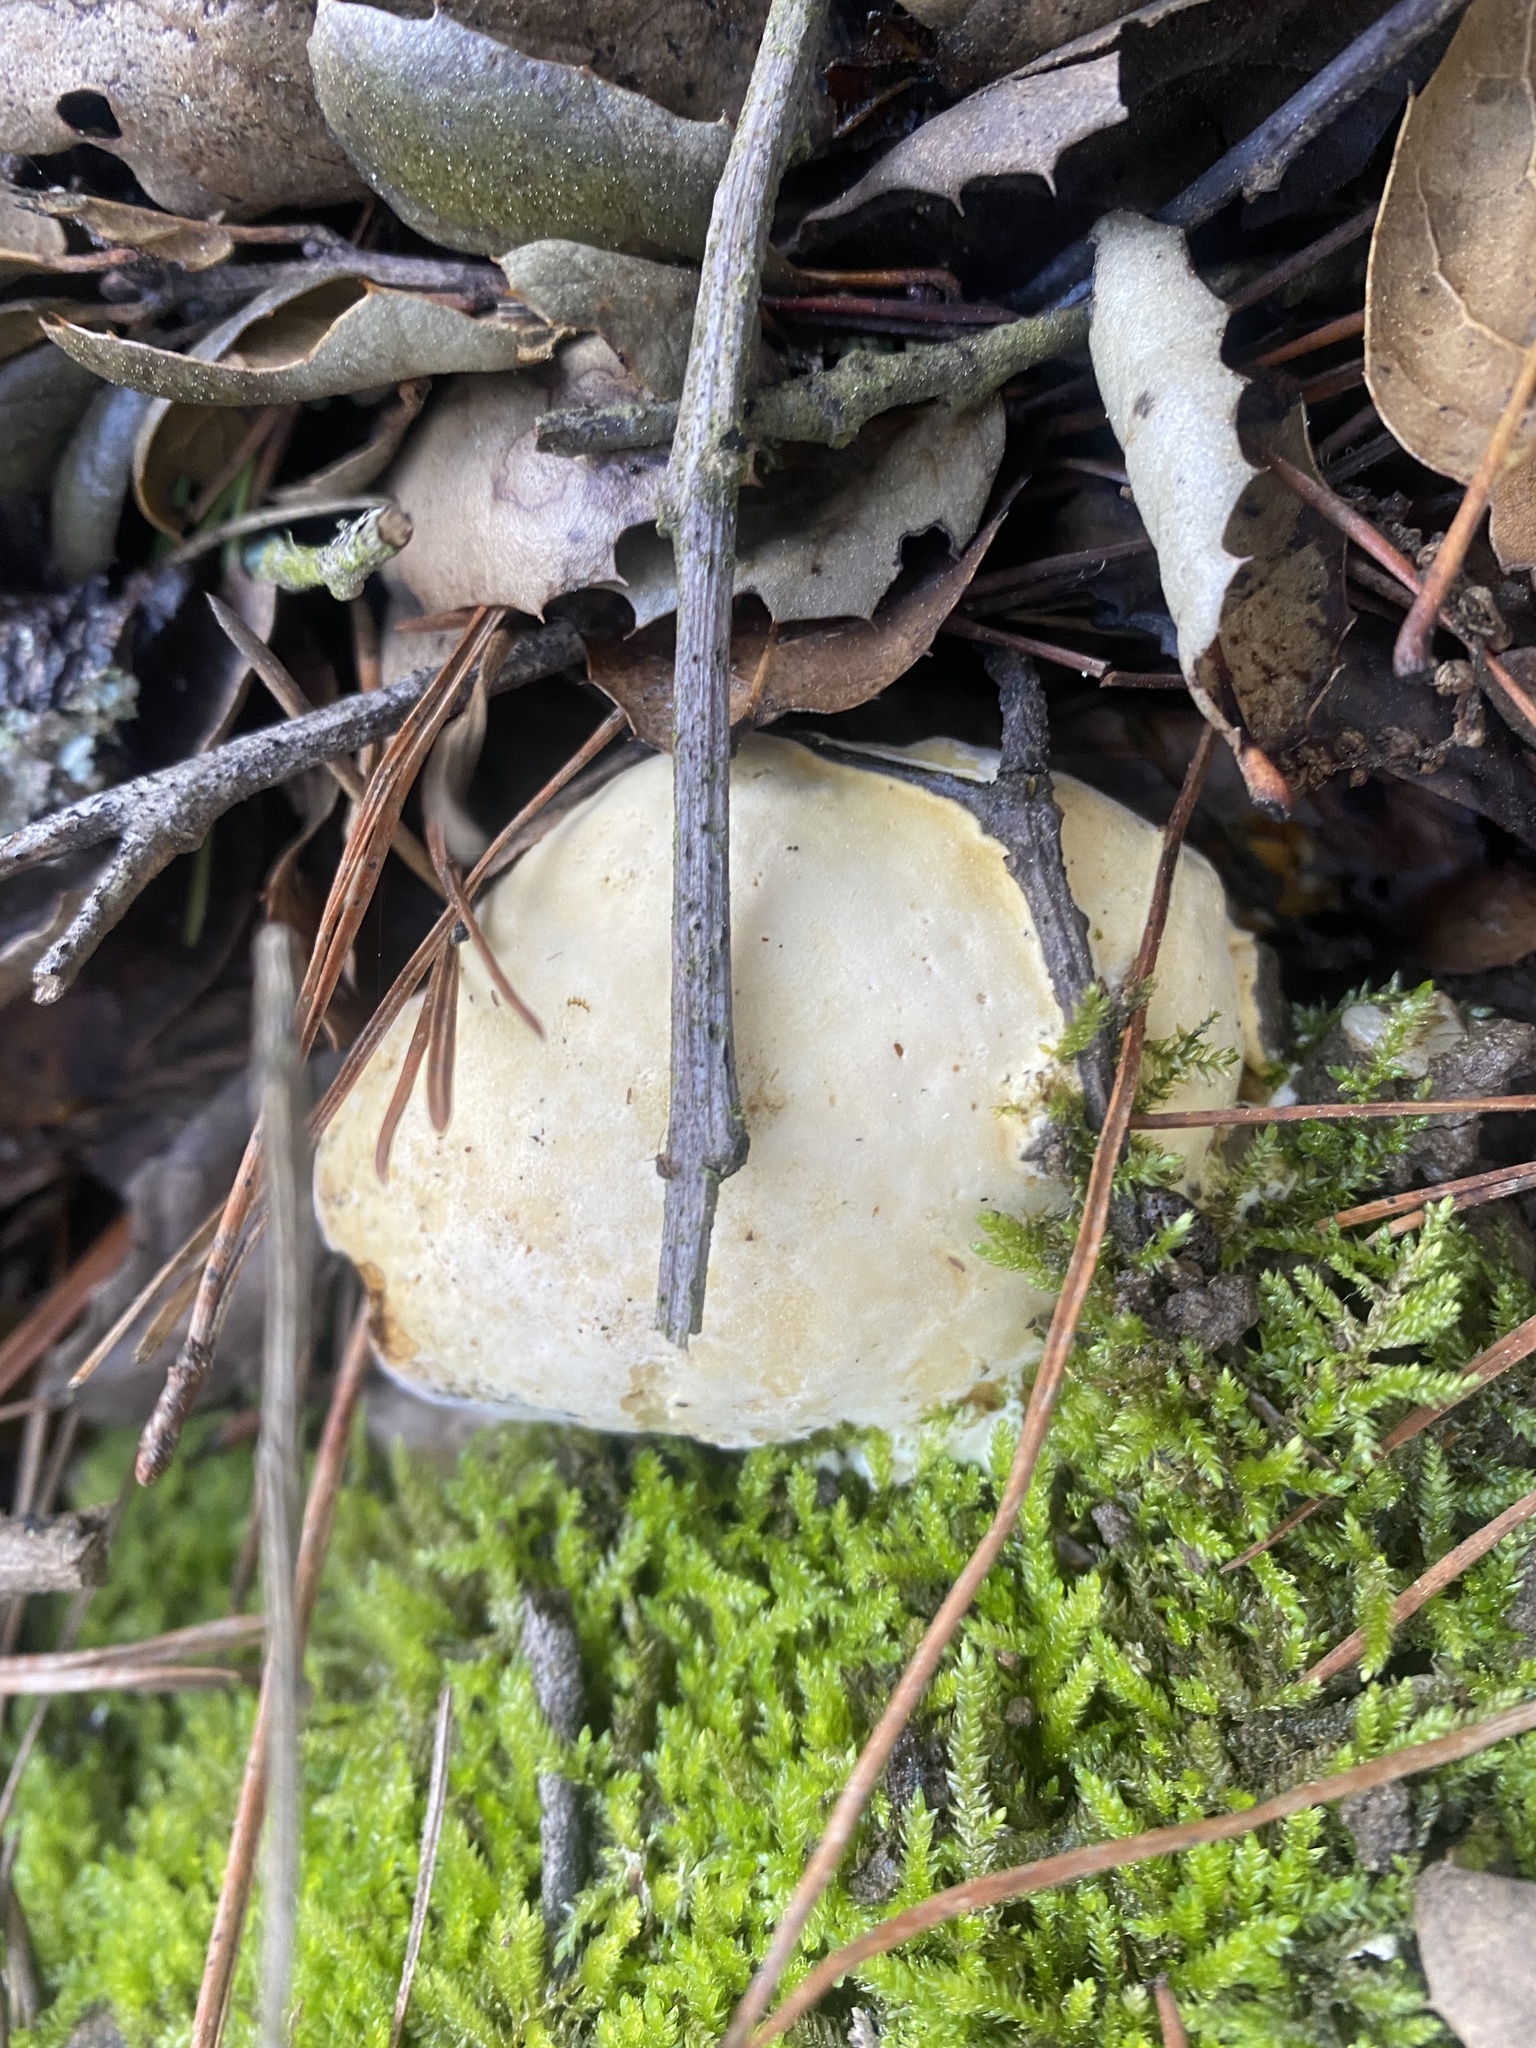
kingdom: Fungi
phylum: Ascomycota
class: Sordariomycetes
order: Hypocreales
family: Hypocreaceae
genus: Hypomyces
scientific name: Hypomyces microspermus
